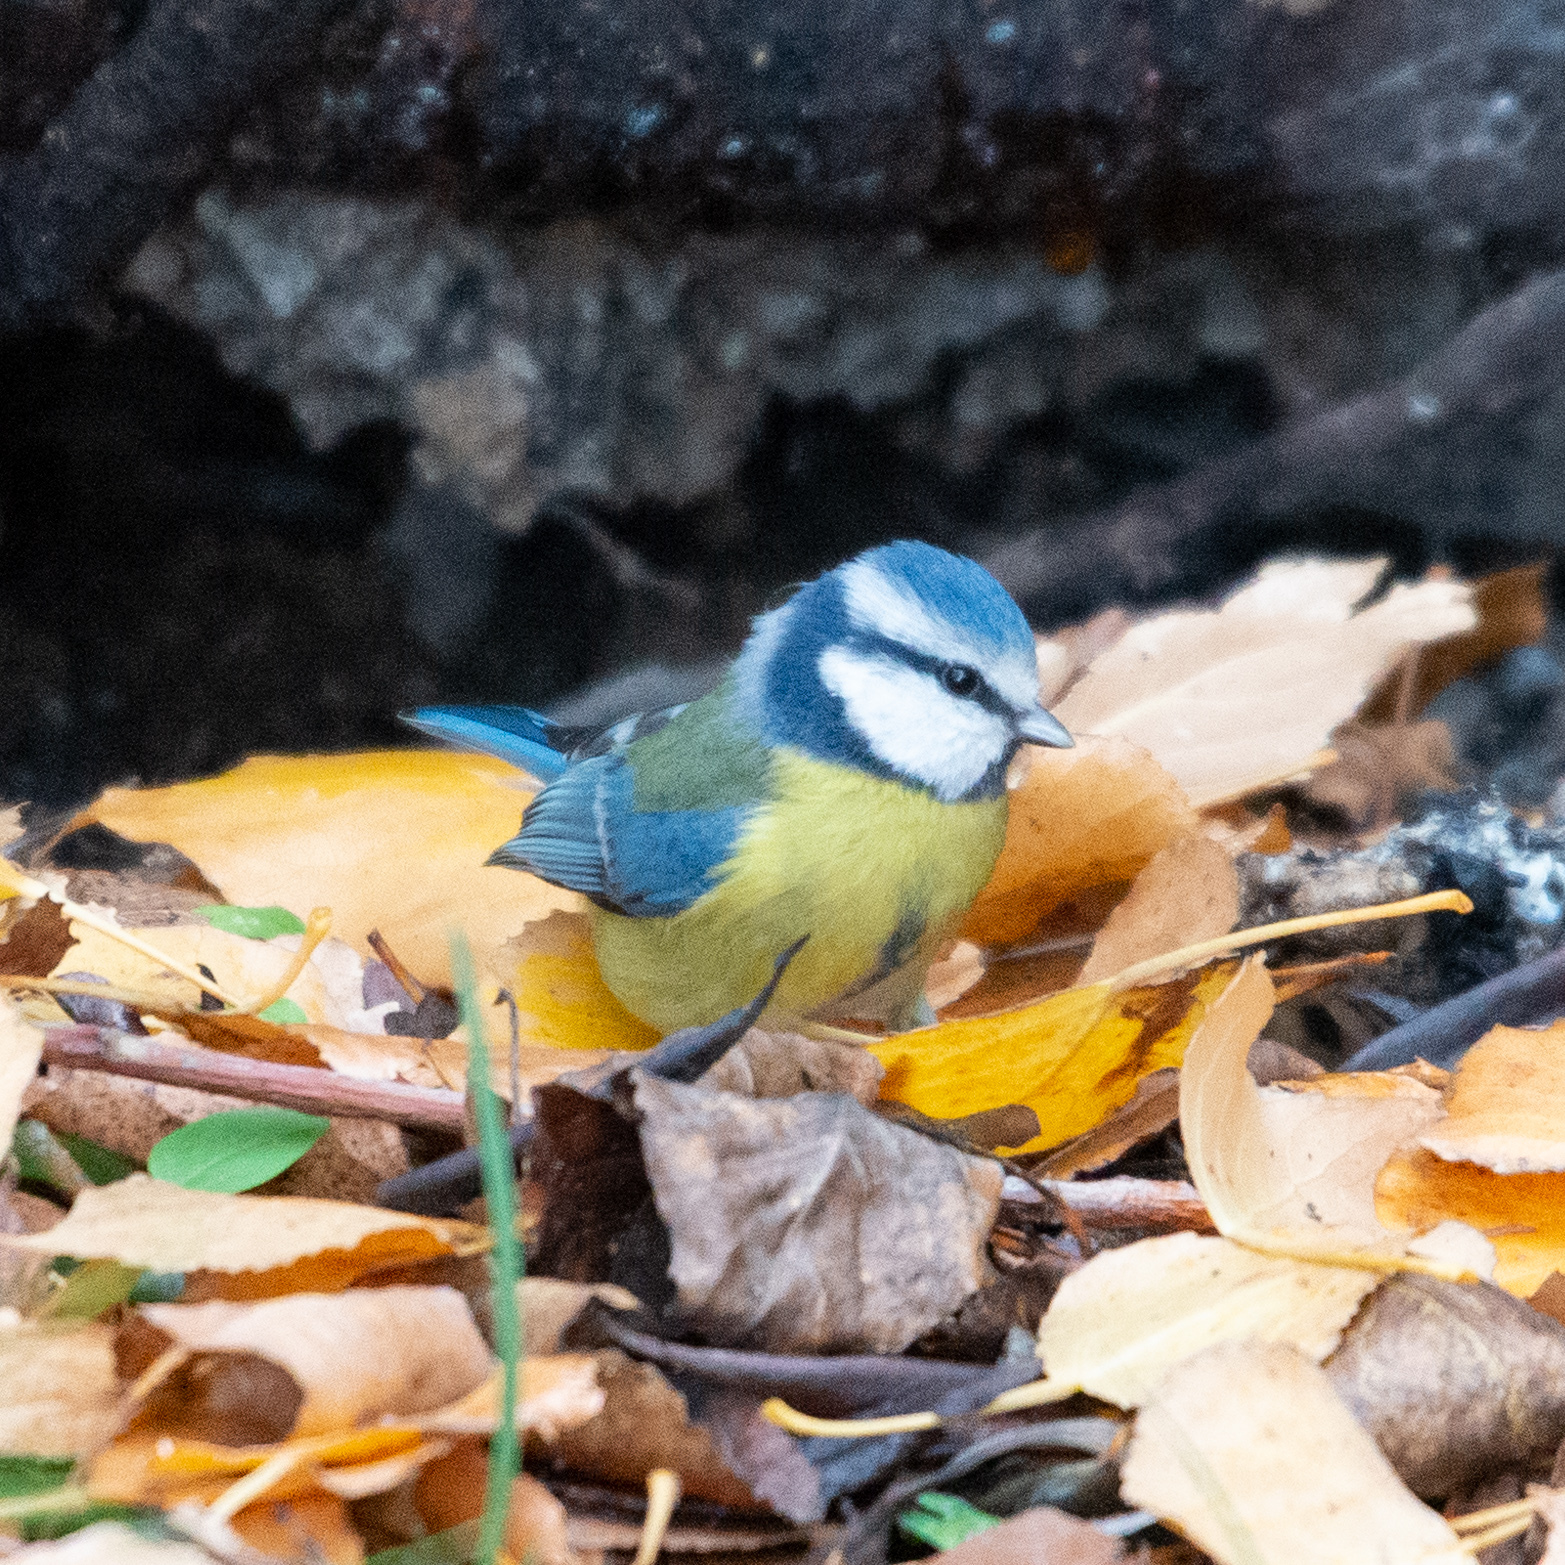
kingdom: Animalia
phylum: Chordata
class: Aves
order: Passeriformes
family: Paridae
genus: Cyanistes
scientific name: Cyanistes caeruleus
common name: Eurasian blue tit
